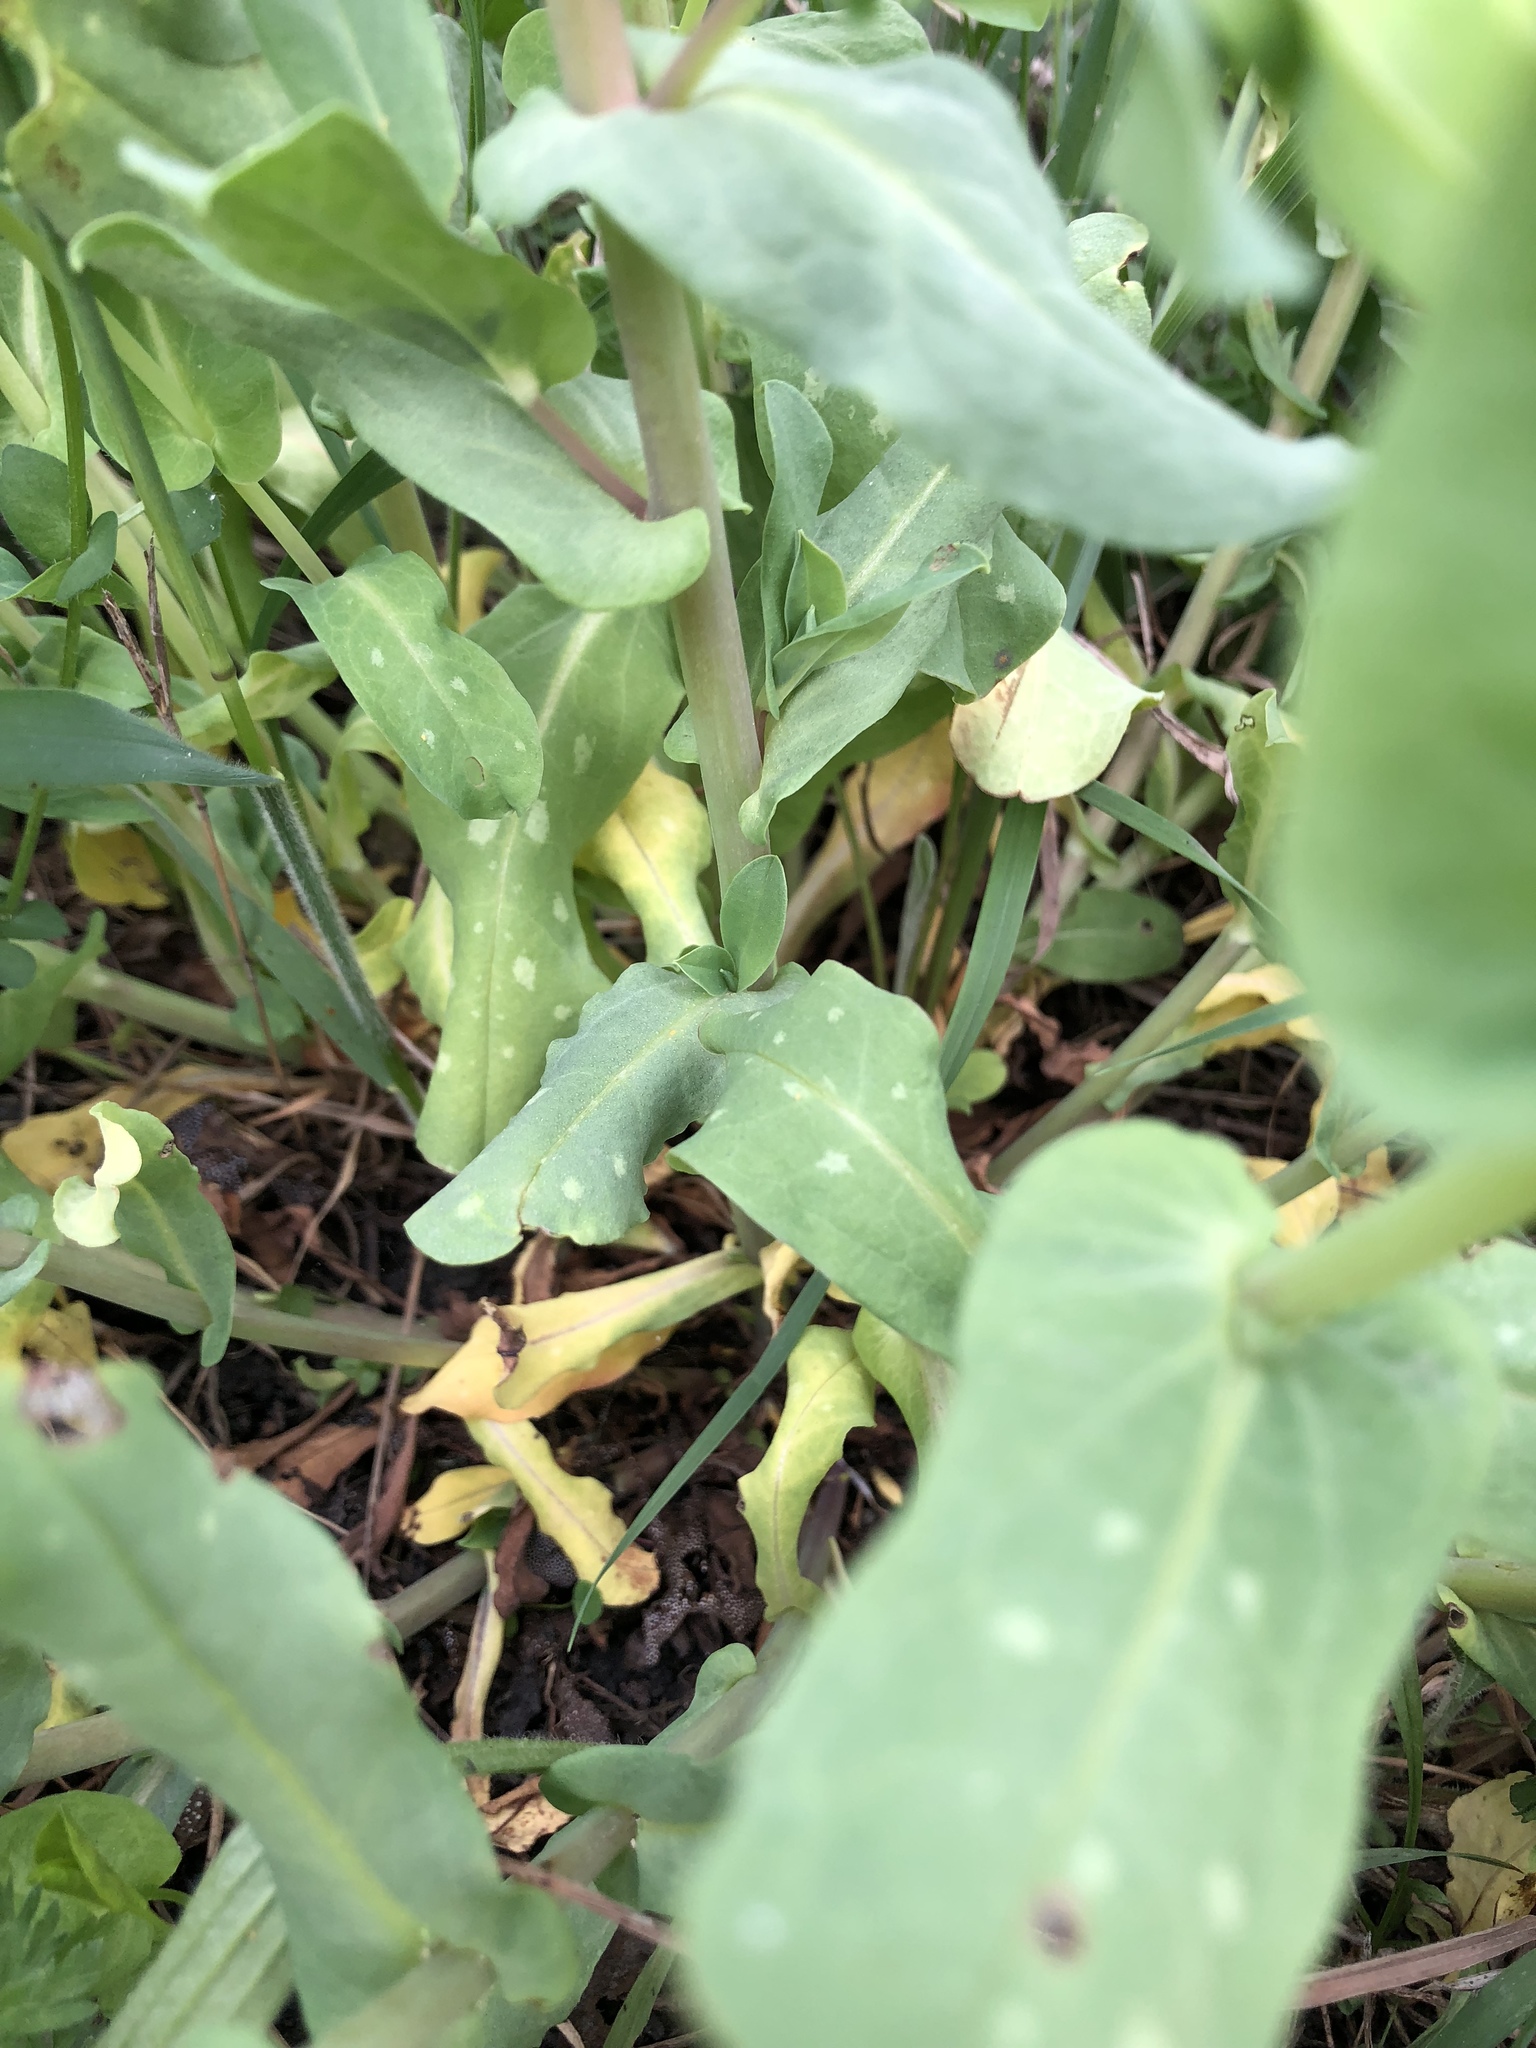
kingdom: Plantae
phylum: Tracheophyta
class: Magnoliopsida
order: Boraginales
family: Boraginaceae
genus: Cerinthe
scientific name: Cerinthe minor
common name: Lesser honeywort
